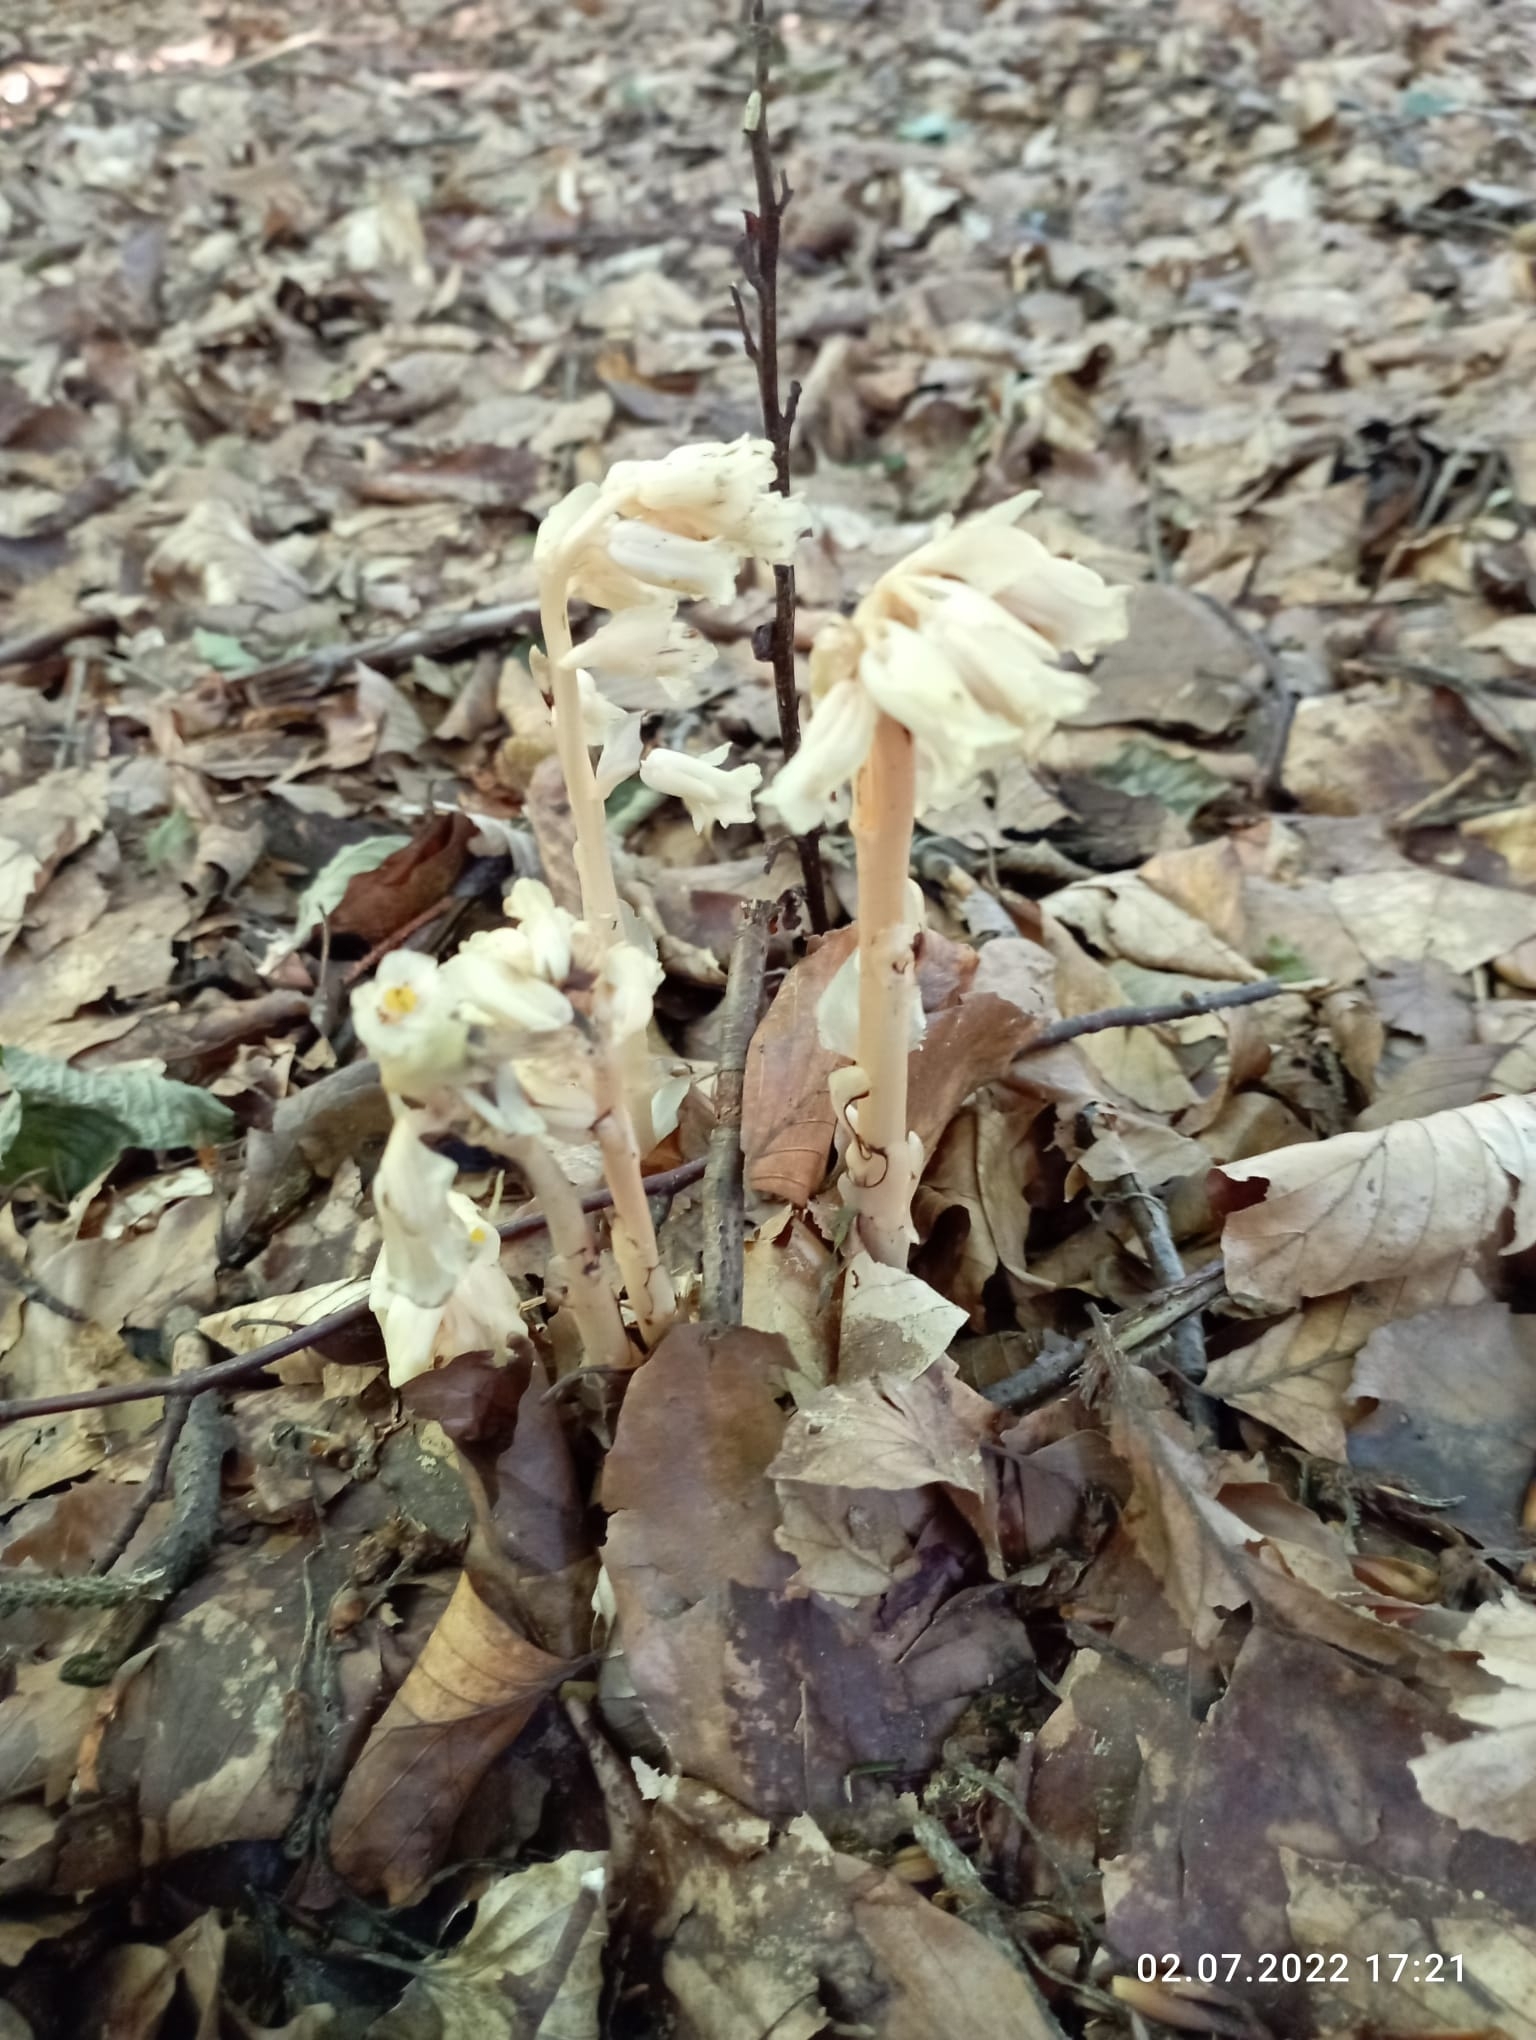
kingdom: Plantae
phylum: Tracheophyta
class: Magnoliopsida
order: Ericales
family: Ericaceae
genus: Hypopitys
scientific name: Hypopitys monotropa
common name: Yellow bird's-nest
